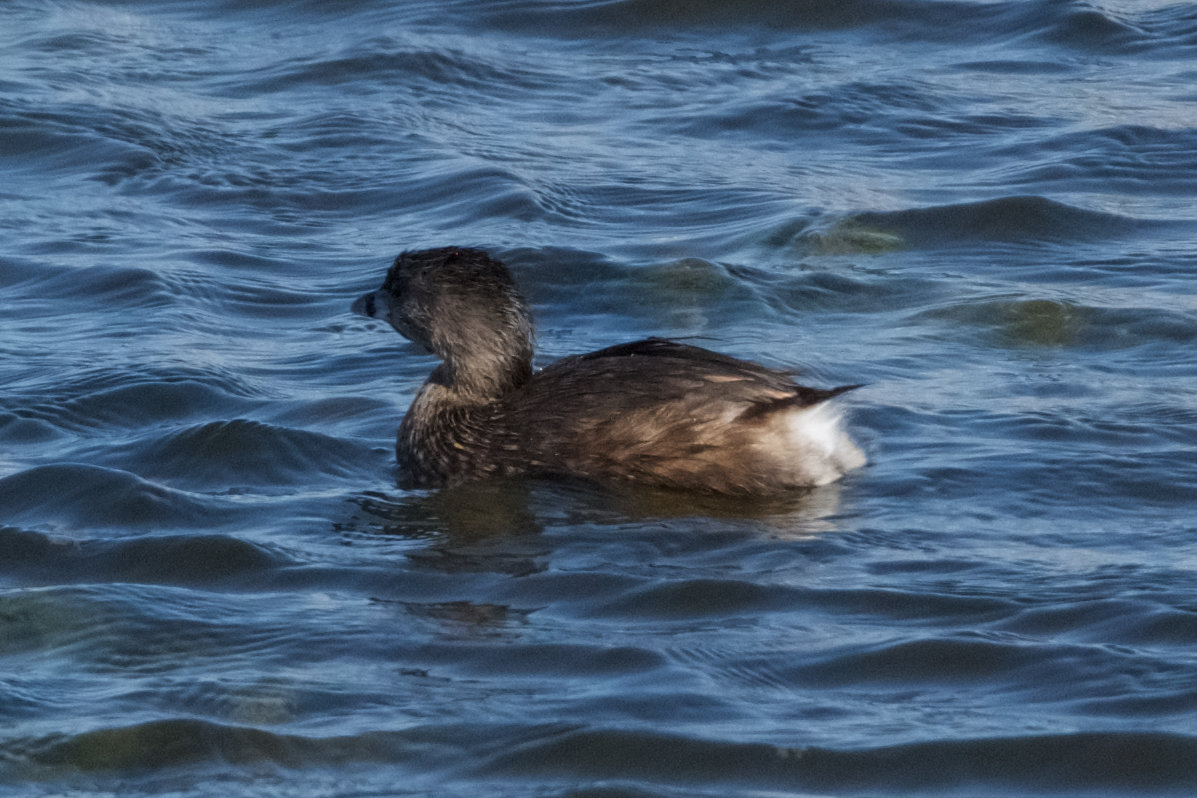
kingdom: Animalia
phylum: Chordata
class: Aves
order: Podicipediformes
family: Podicipedidae
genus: Podilymbus
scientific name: Podilymbus podiceps
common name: Pied-billed grebe
